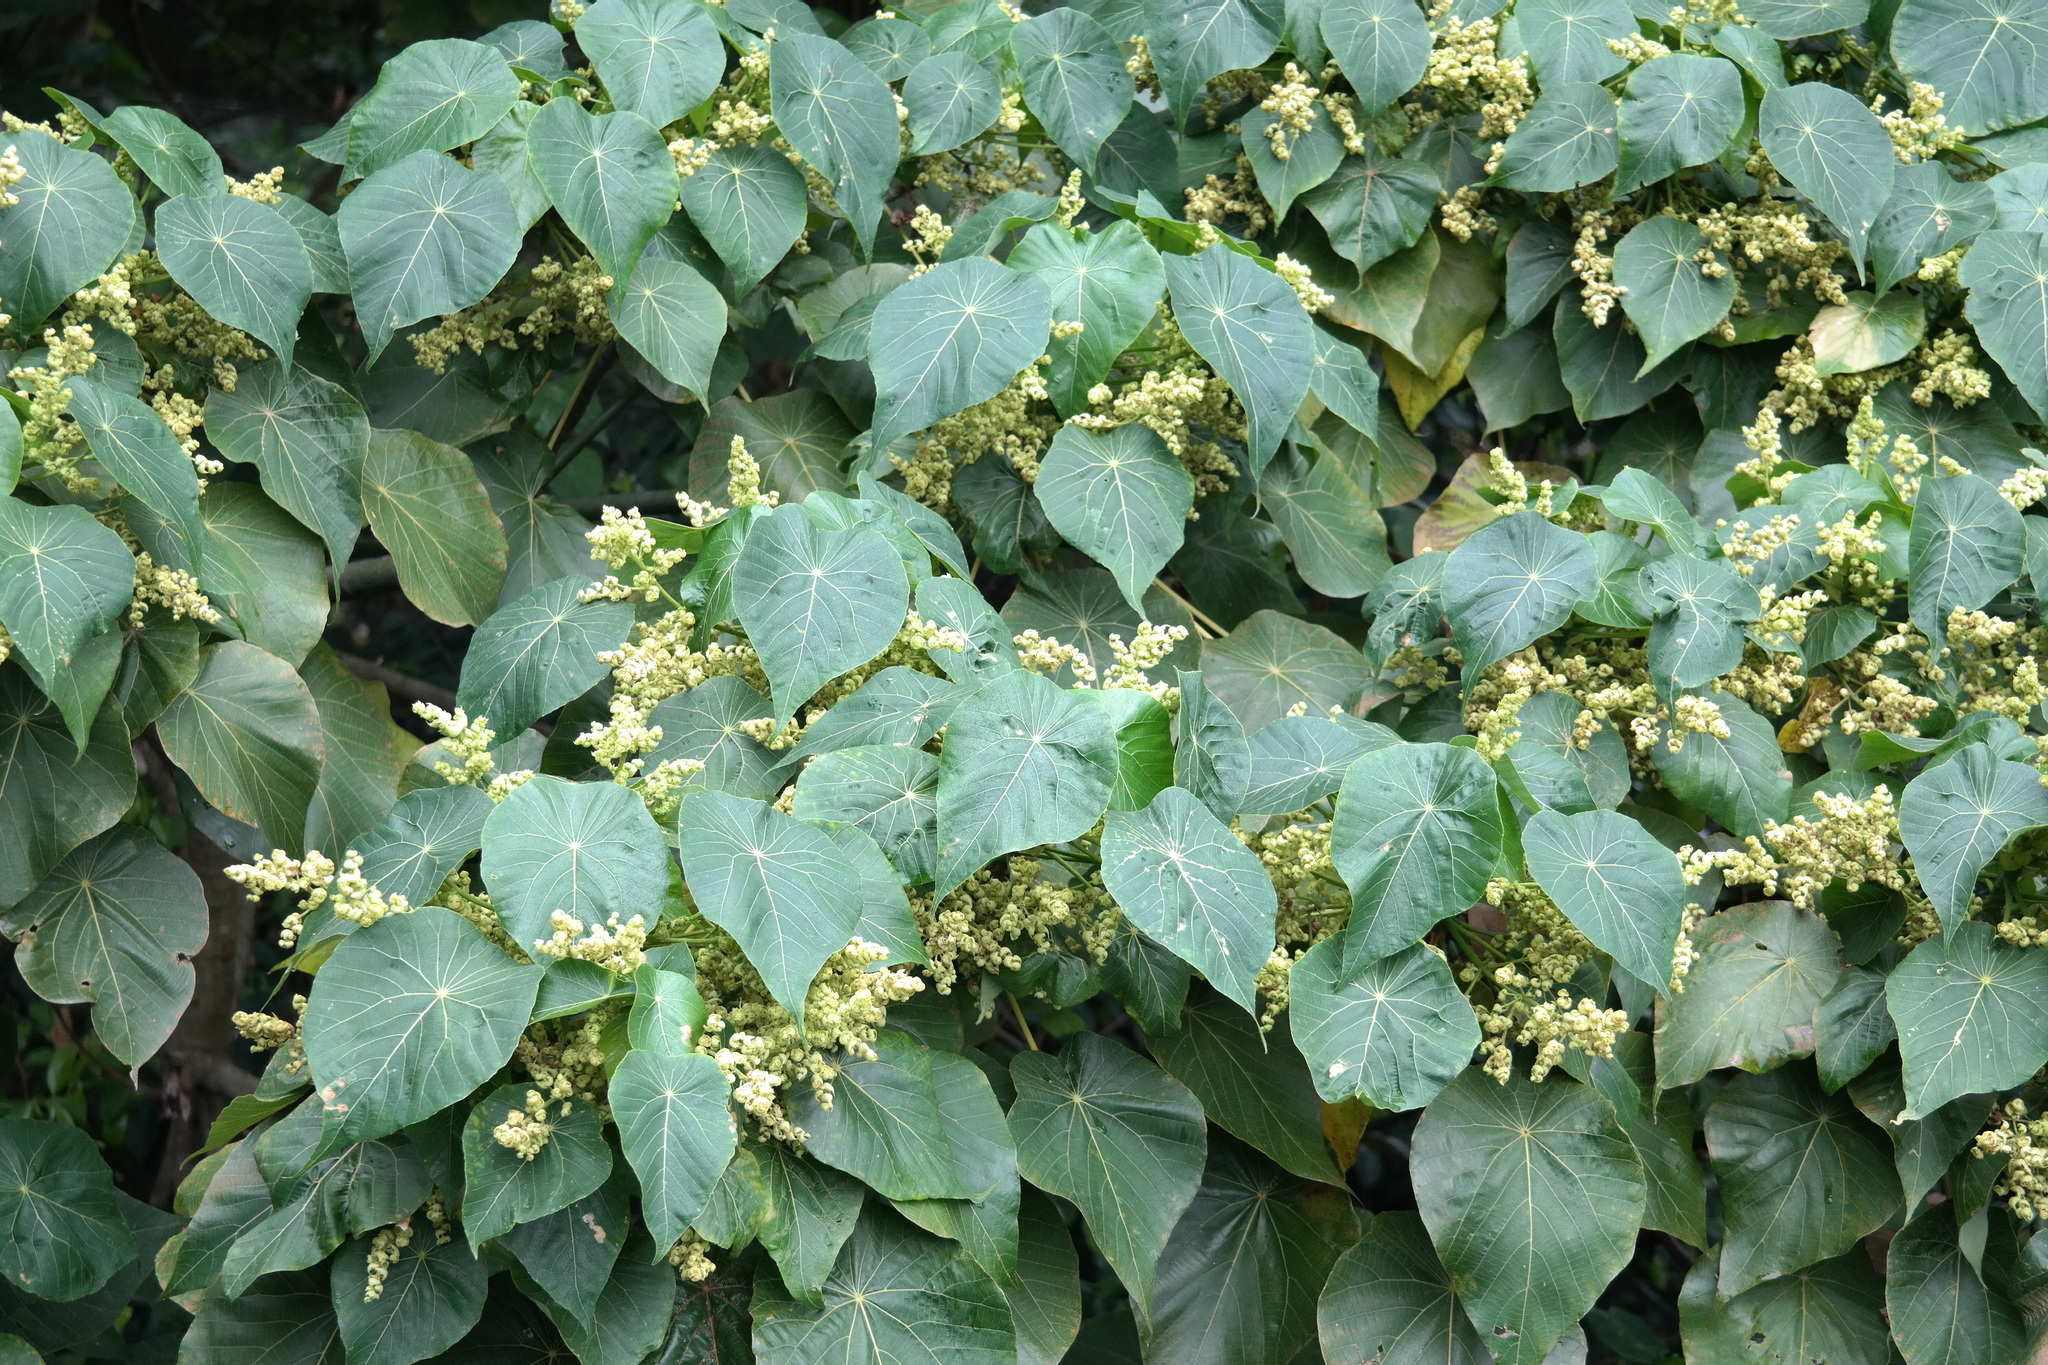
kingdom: Plantae
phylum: Tracheophyta
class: Magnoliopsida
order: Malpighiales
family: Euphorbiaceae
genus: Macaranga
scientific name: Macaranga tanarius
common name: Parasol leaf tree
